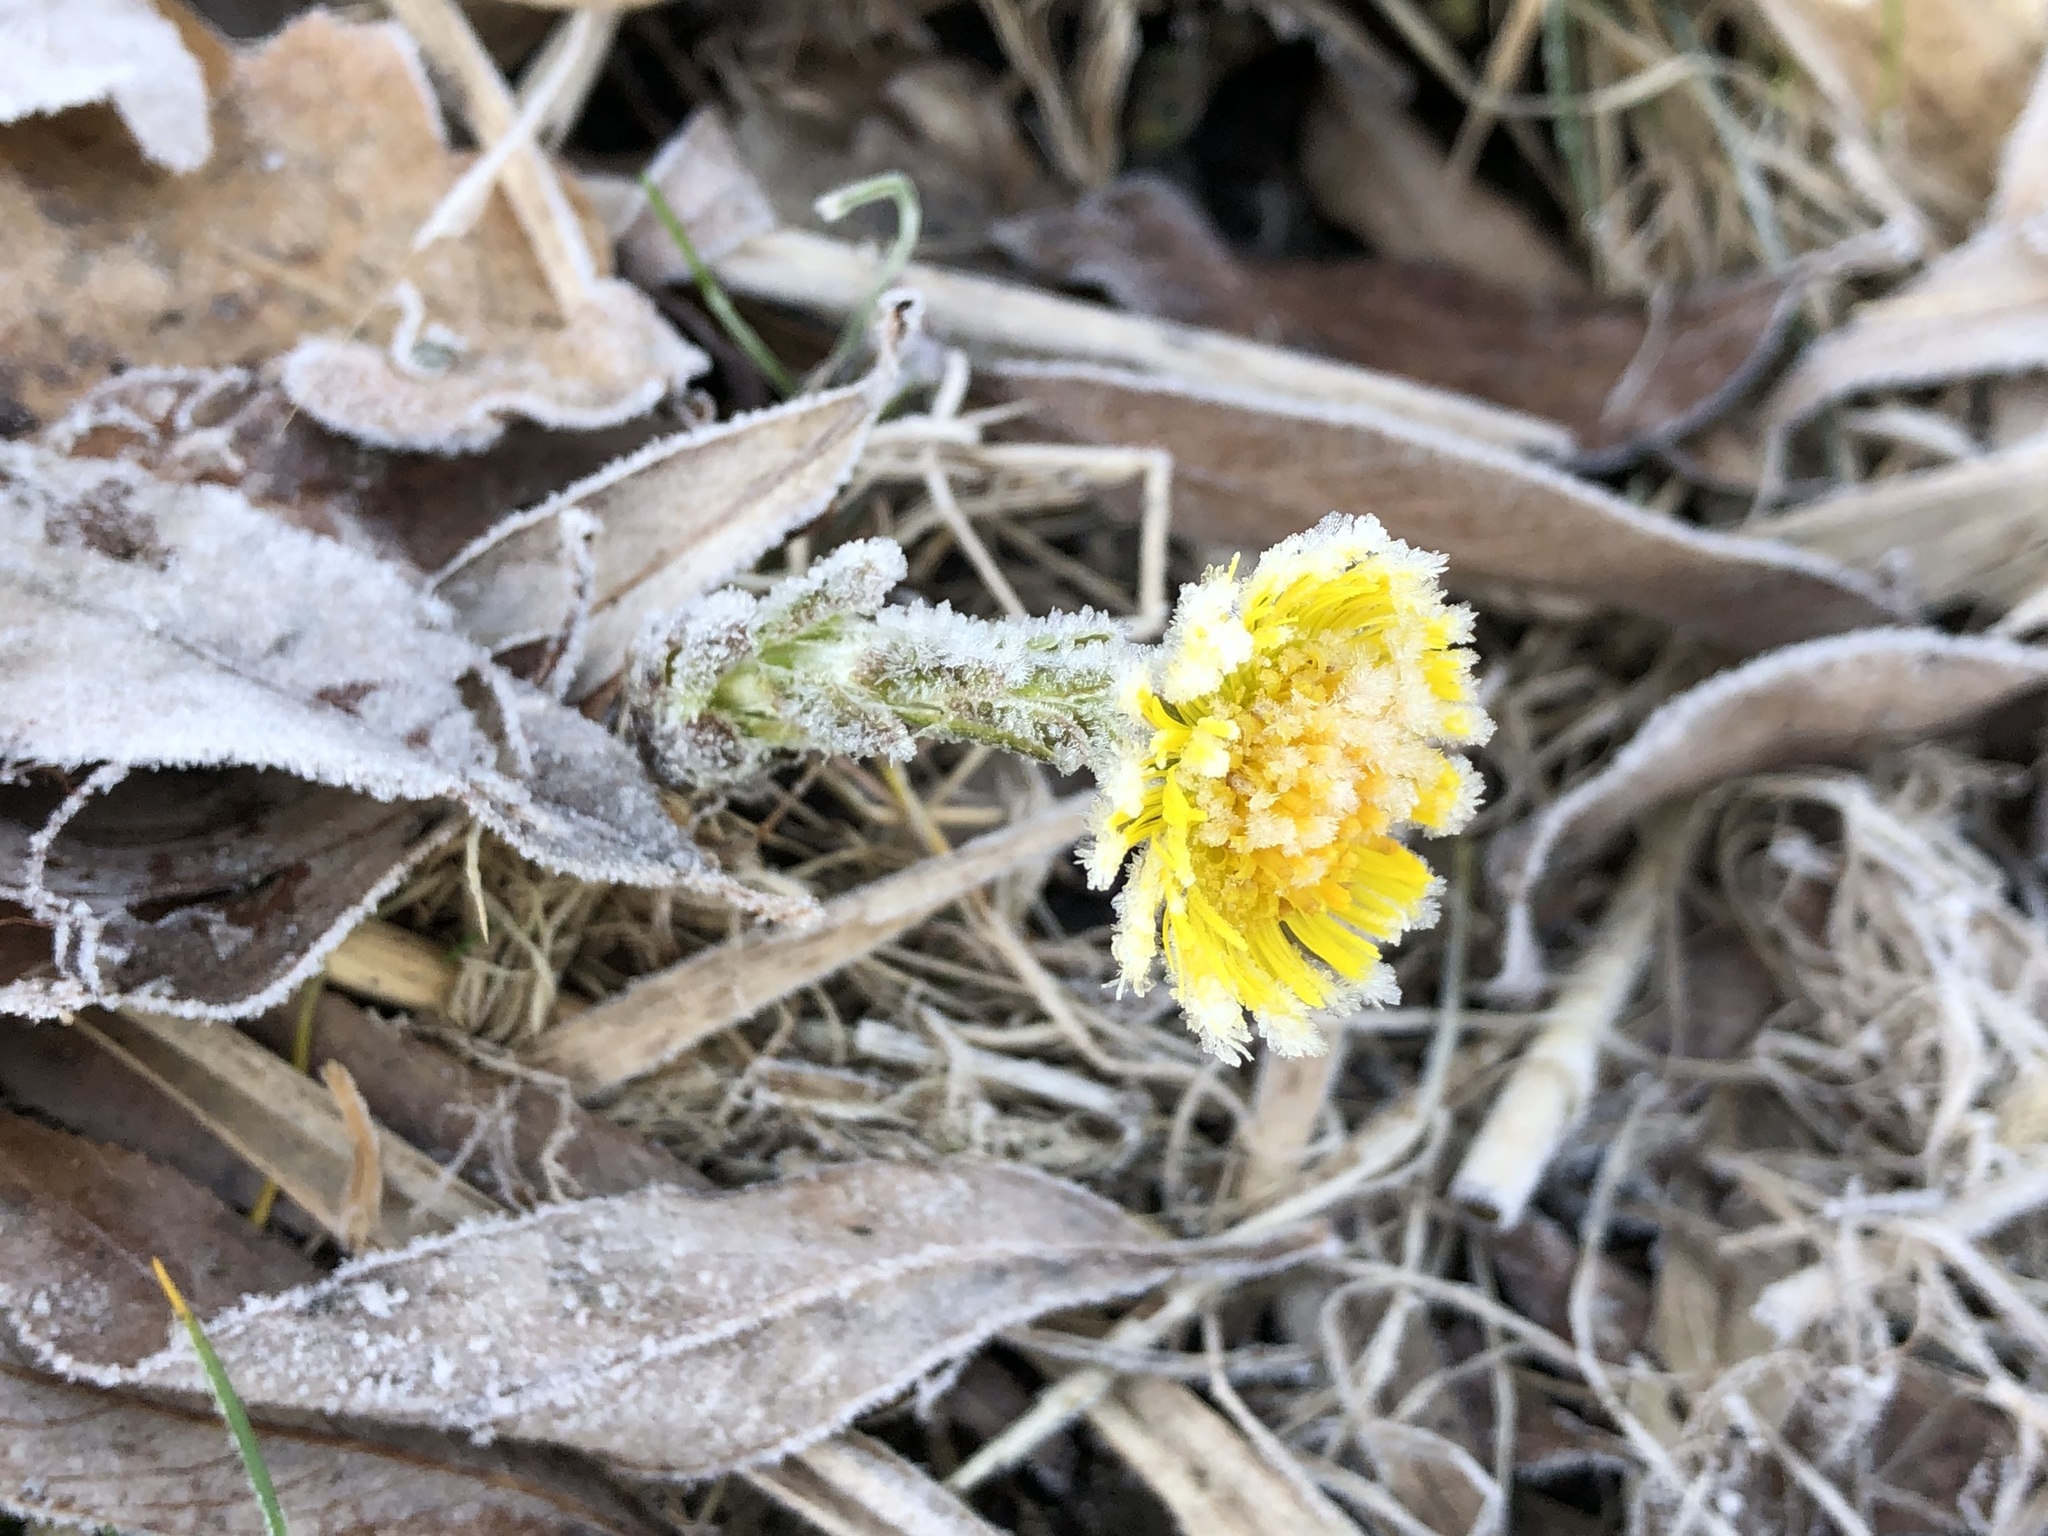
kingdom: Plantae
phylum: Tracheophyta
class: Magnoliopsida
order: Asterales
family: Asteraceae
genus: Tussilago
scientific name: Tussilago farfara
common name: Coltsfoot
